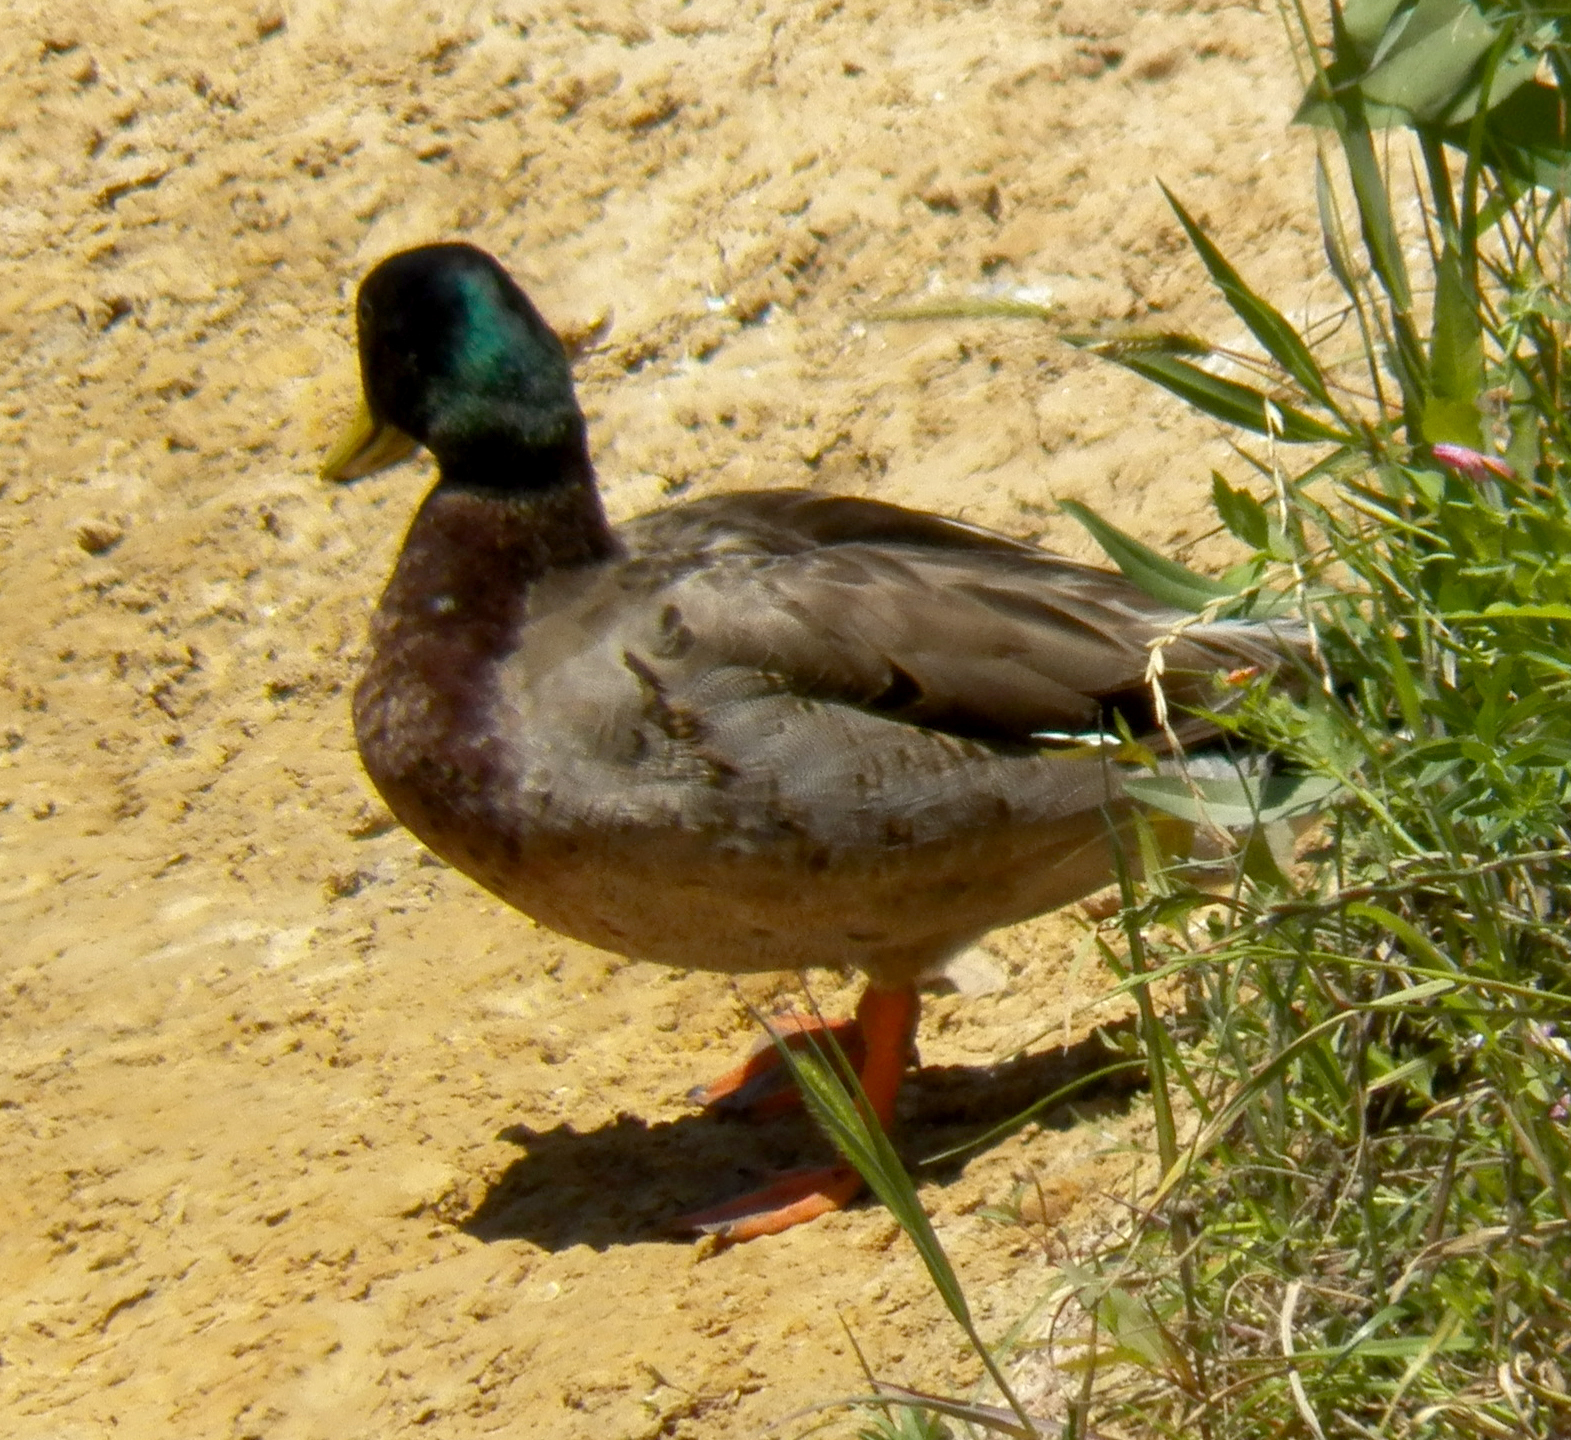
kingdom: Animalia
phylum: Chordata
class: Aves
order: Anseriformes
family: Anatidae
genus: Anas
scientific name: Anas platyrhynchos
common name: Mallard
